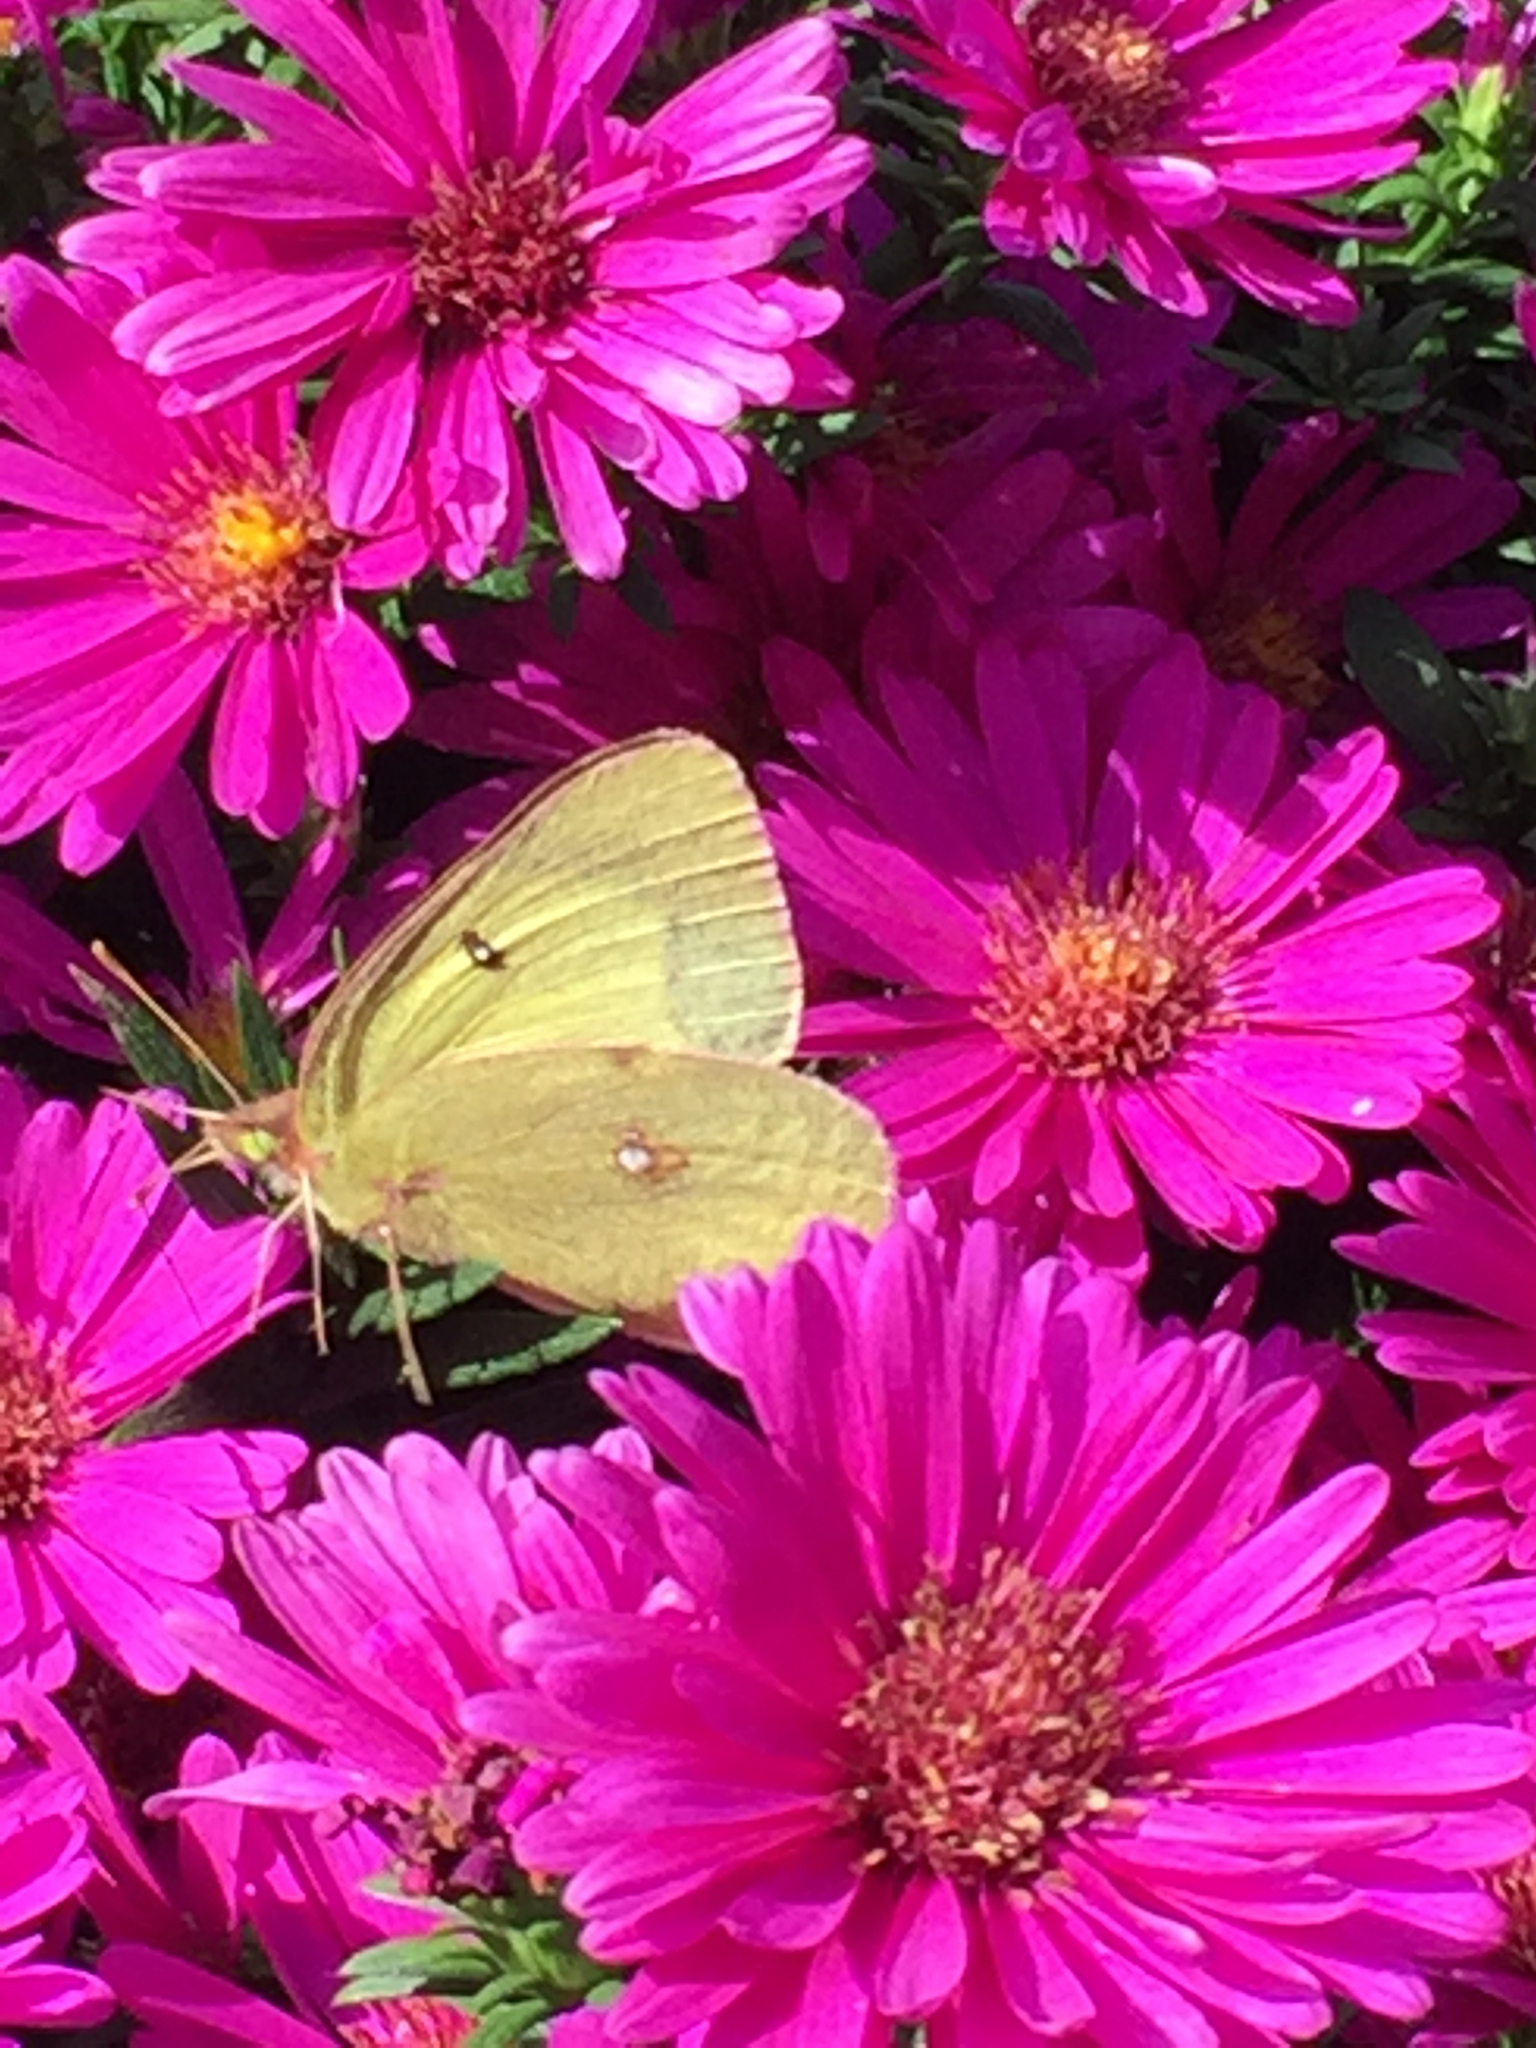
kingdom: Animalia
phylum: Arthropoda
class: Insecta
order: Lepidoptera
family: Pieridae
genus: Colias
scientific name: Colias philodice
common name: Clouded sulphur
